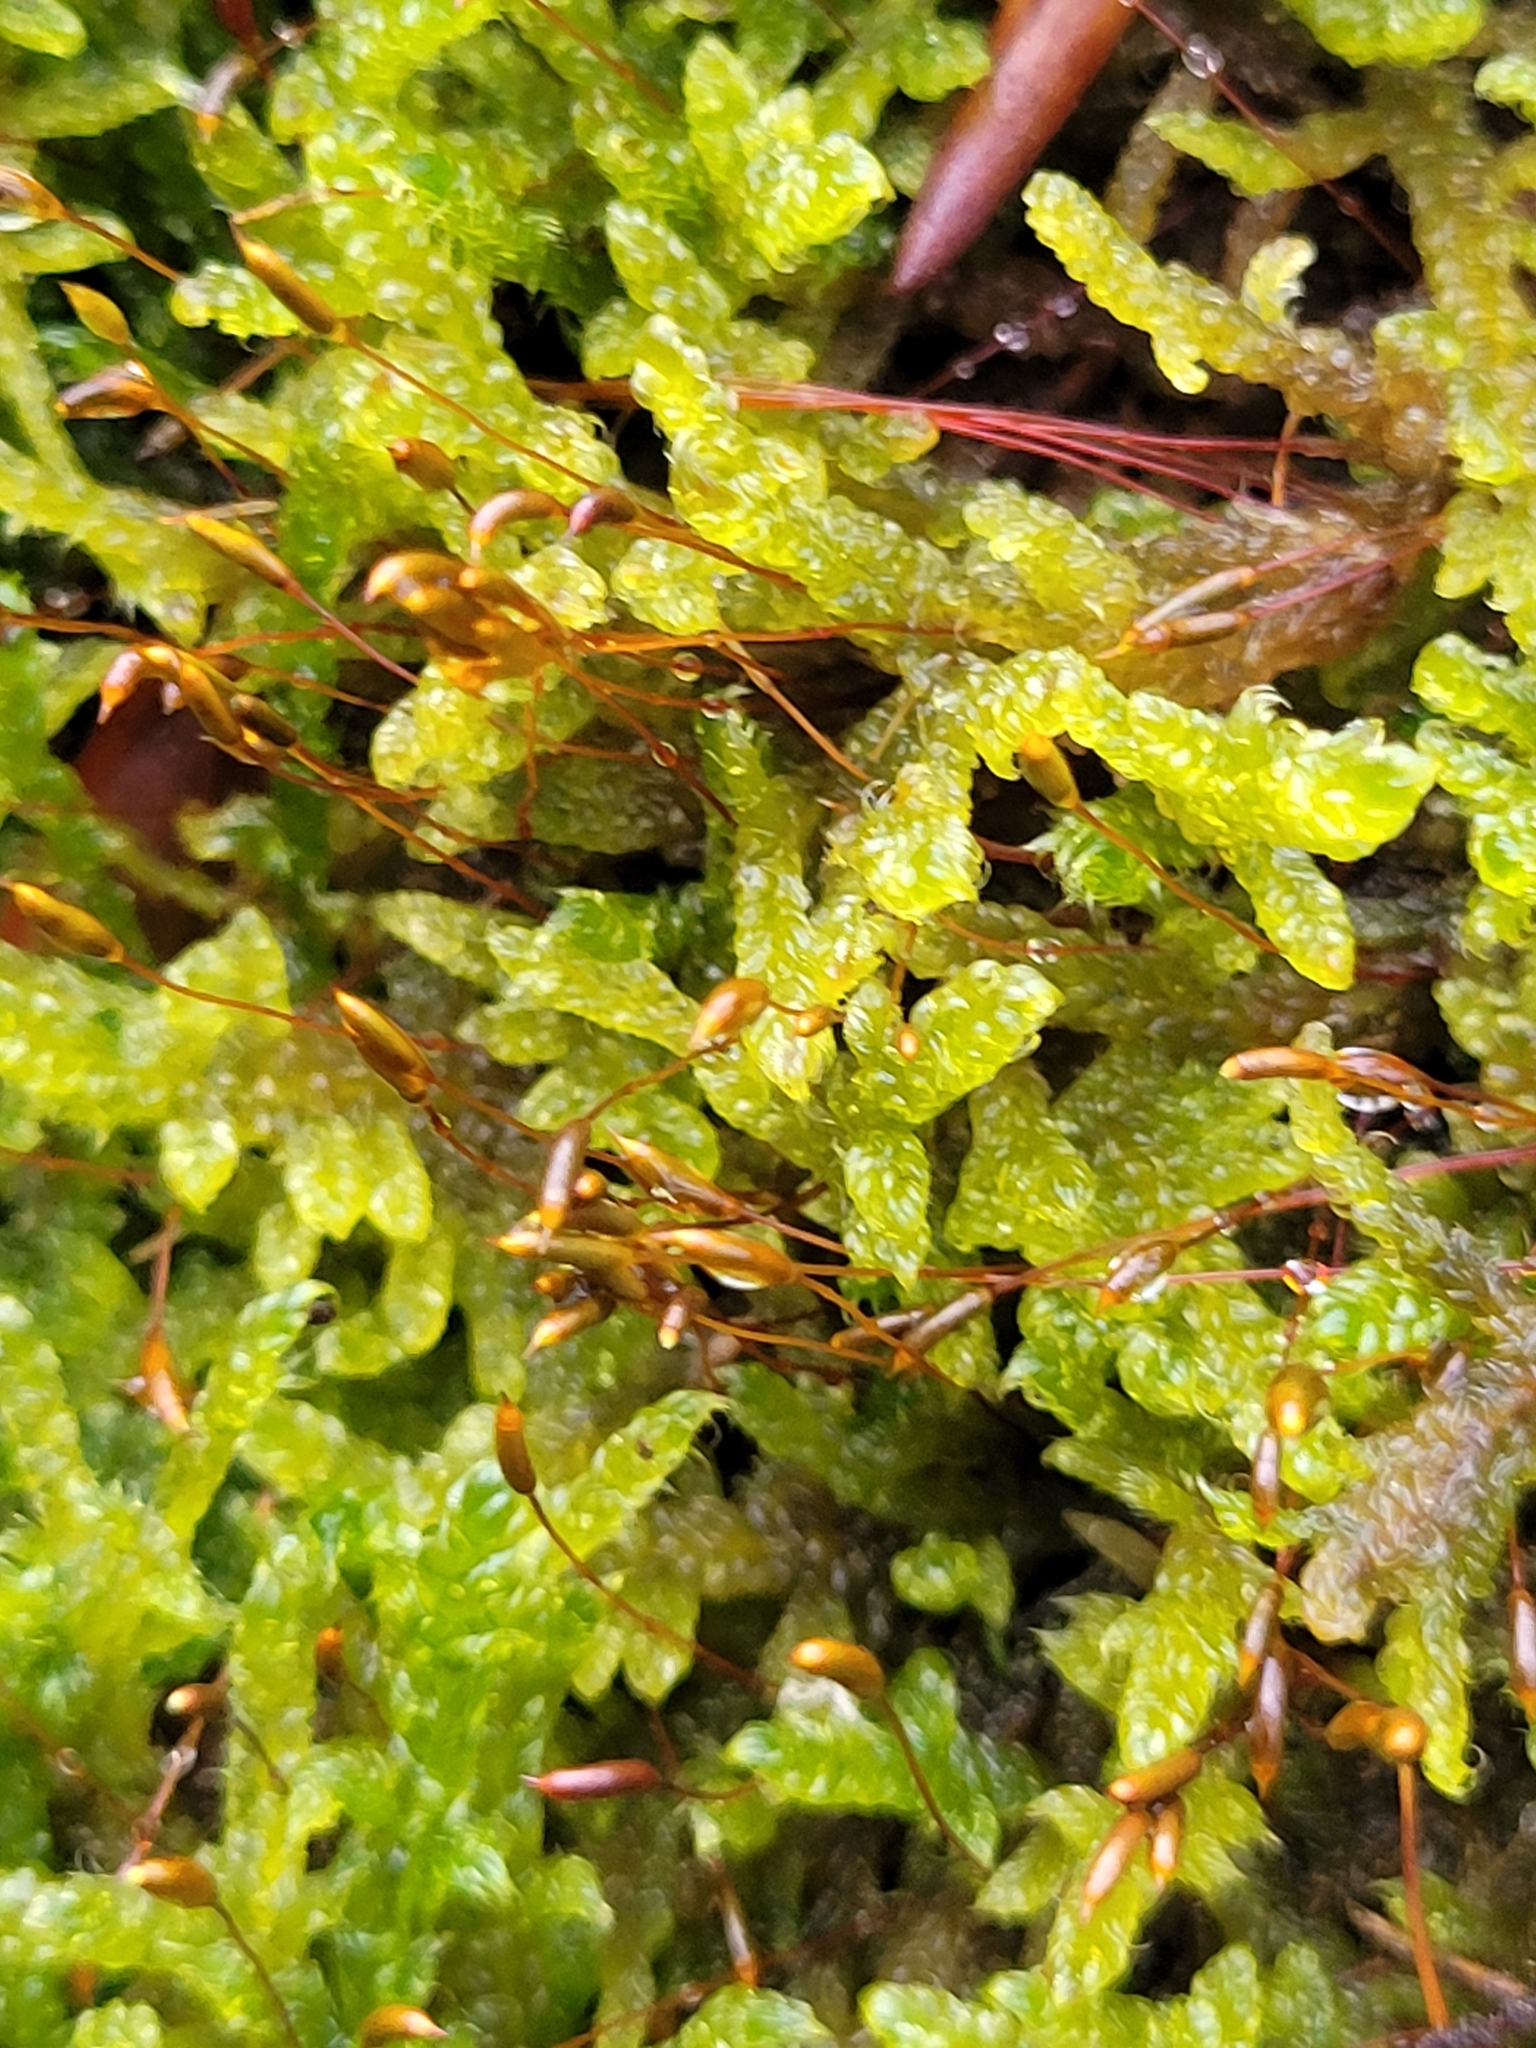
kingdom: Plantae
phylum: Bryophyta
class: Bryopsida
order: Hypnales
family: Hypnaceae
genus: Hypnum
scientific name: Hypnum cupressiforme
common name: Cypress-leaved plait-moss
